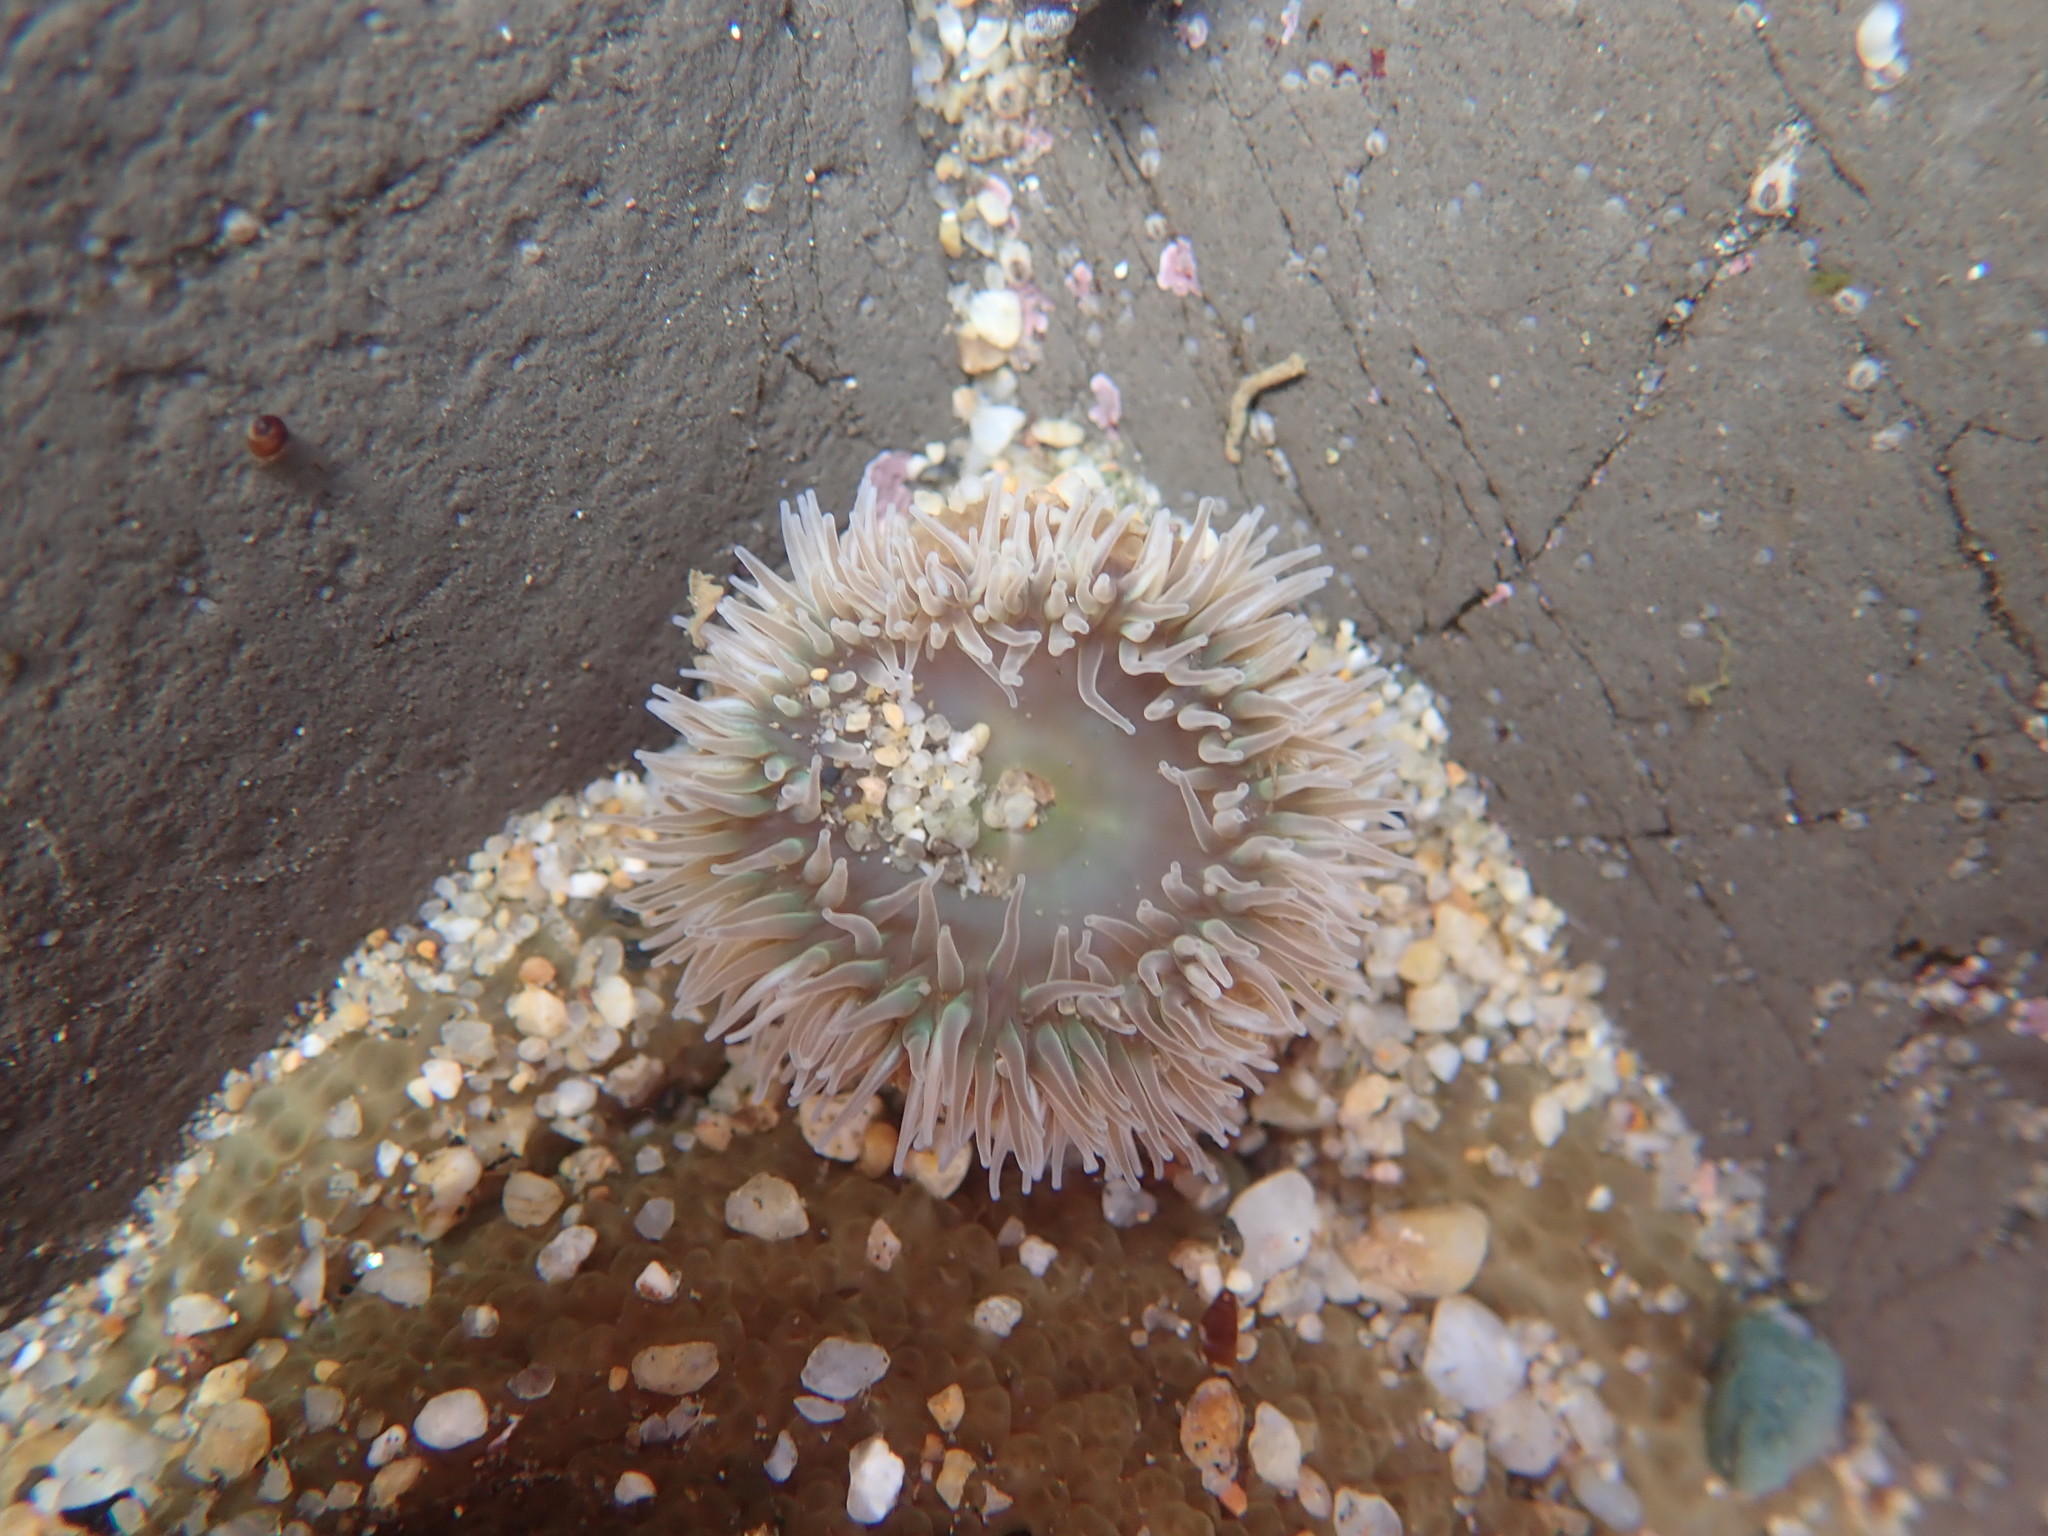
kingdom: Animalia
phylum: Cnidaria
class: Anthozoa
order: Actiniaria
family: Actiniidae
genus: Anthopleura
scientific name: Anthopleura xanthogrammica
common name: Giant green anemone
